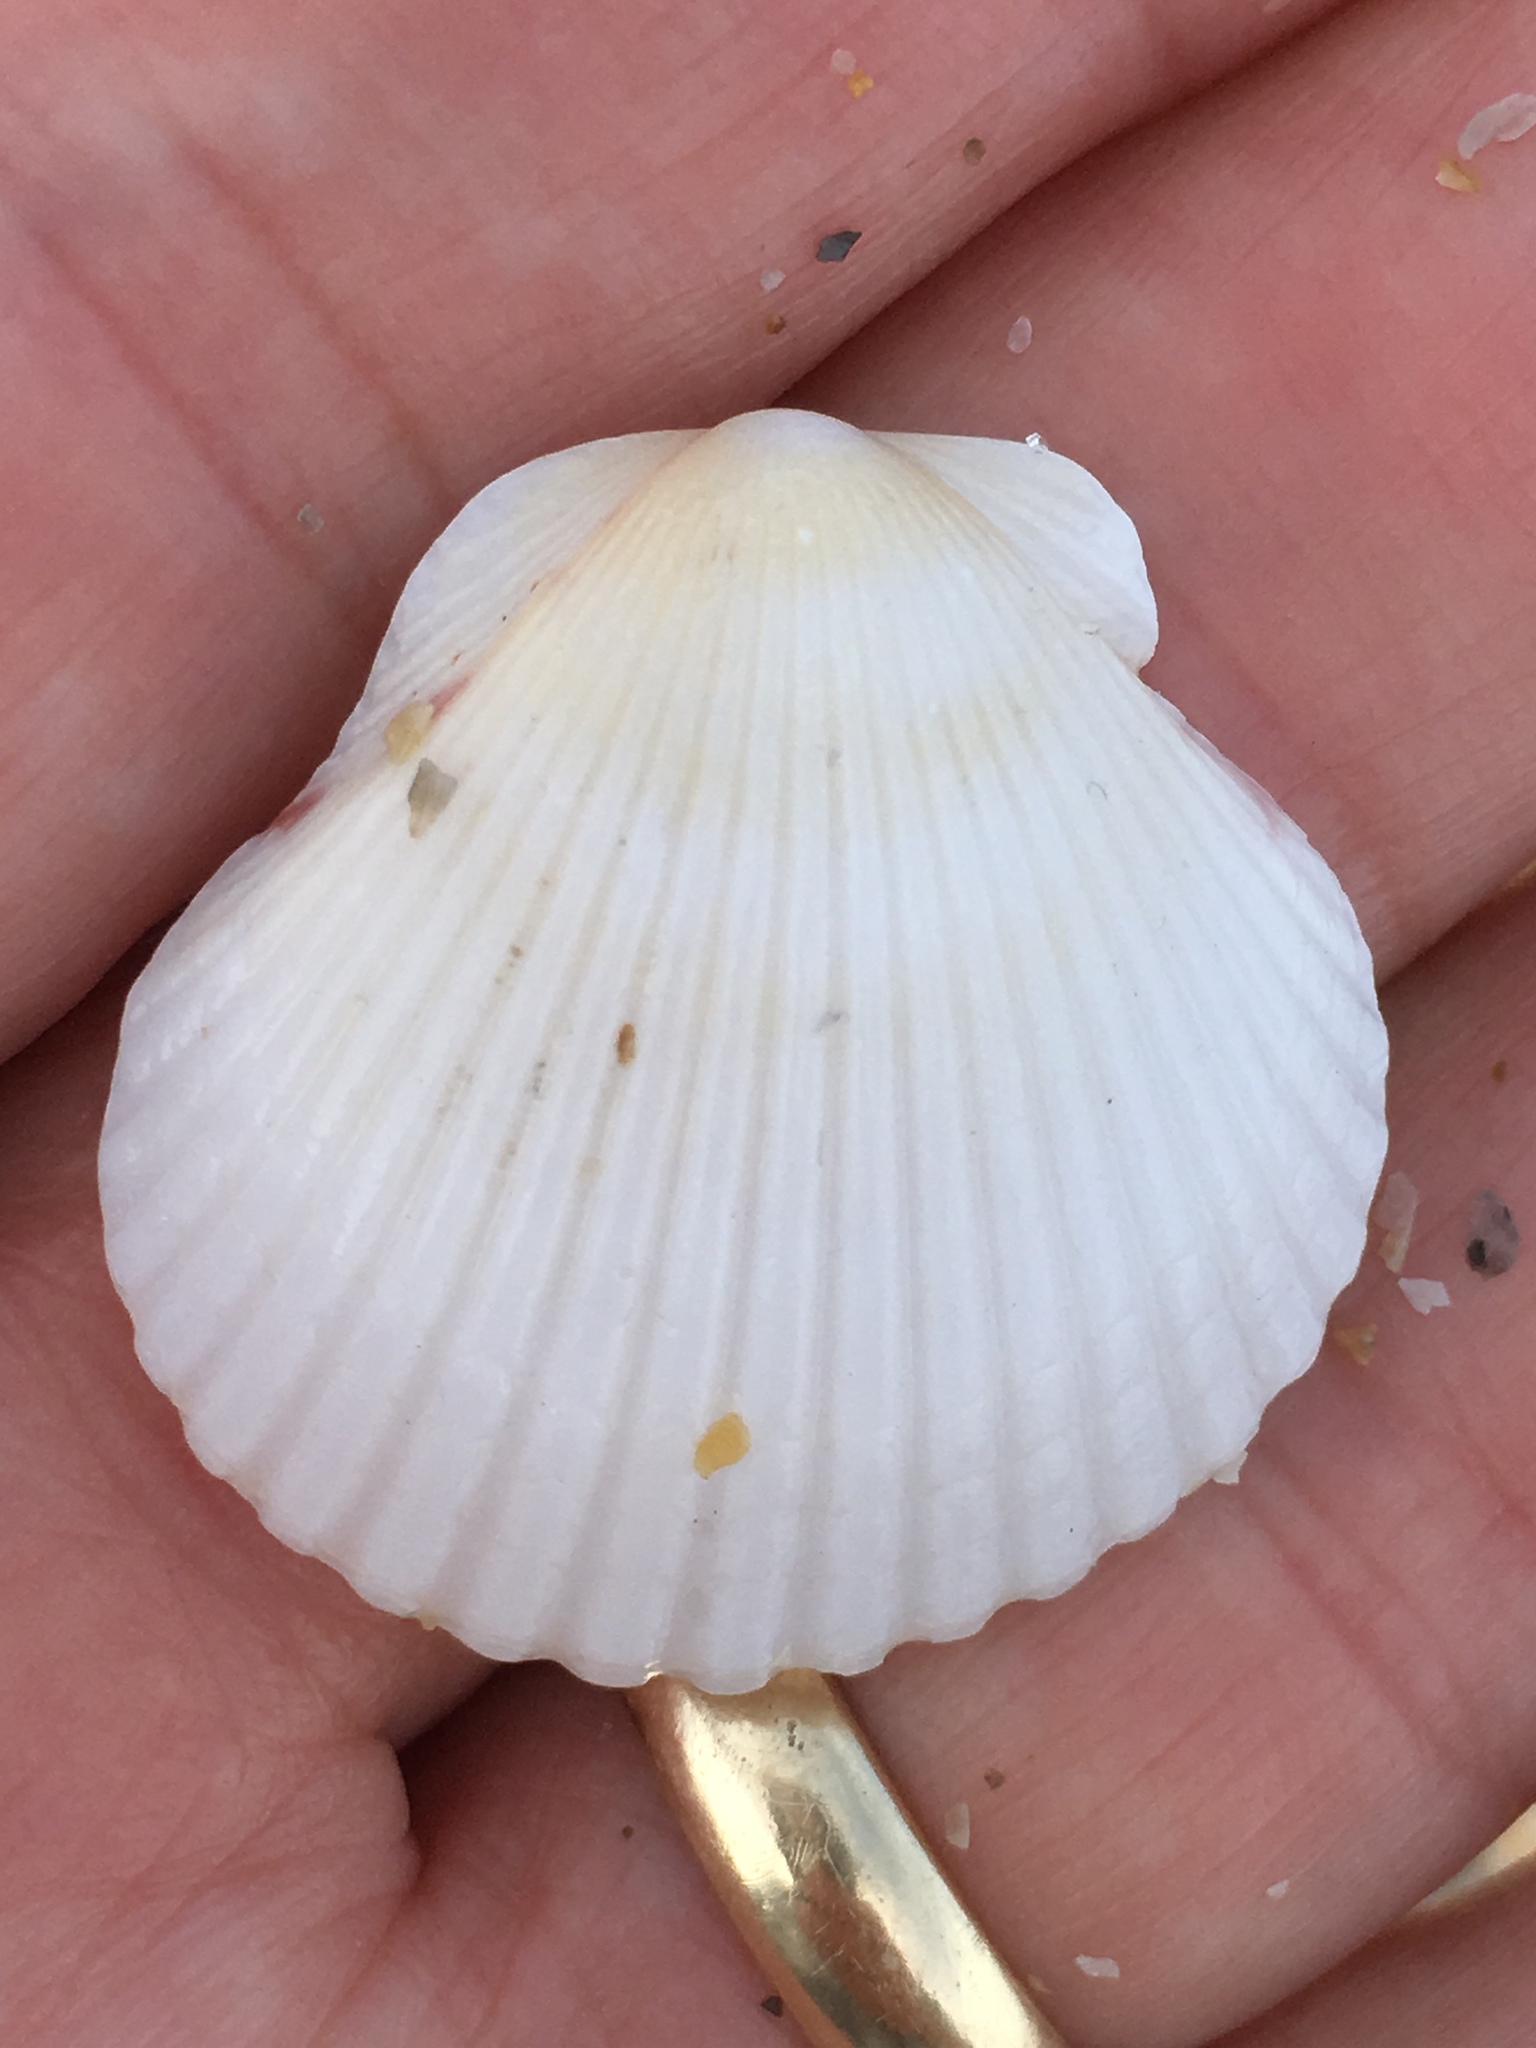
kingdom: Animalia
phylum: Mollusca
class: Bivalvia
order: Pectinida
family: Pectinidae
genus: Argopecten
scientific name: Argopecten gibbus
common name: Atlantic calico scallop
